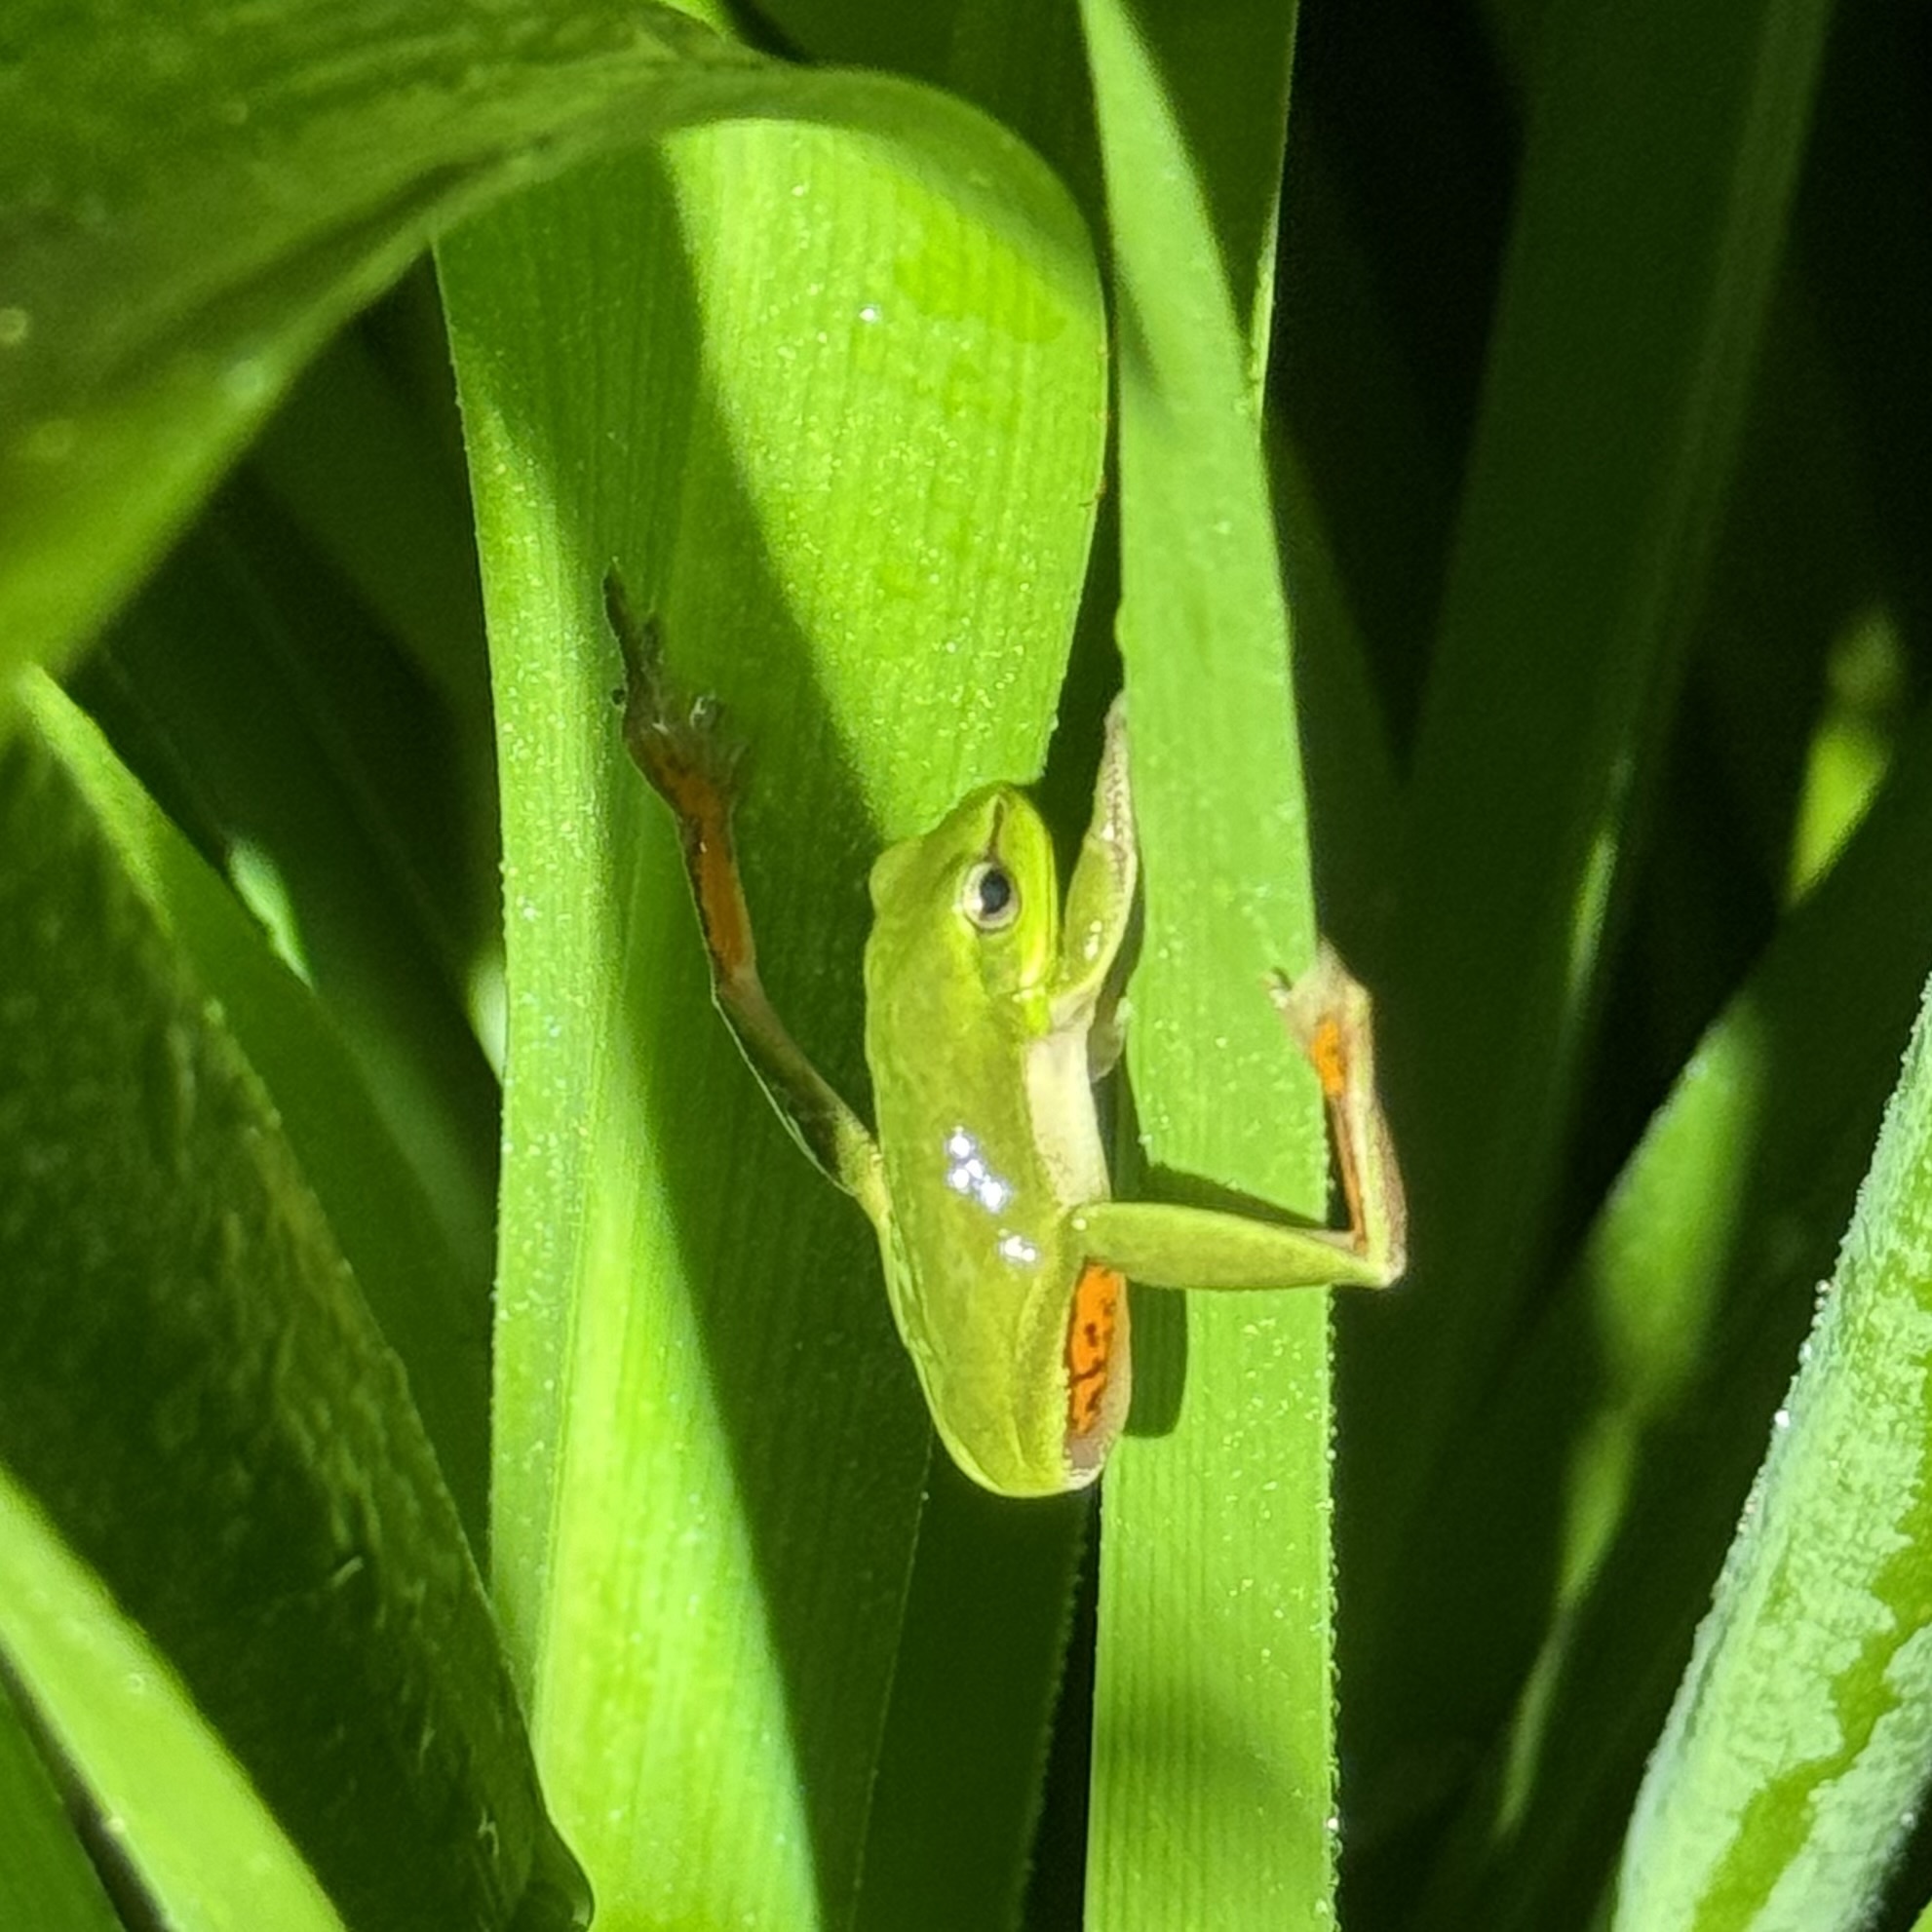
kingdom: Animalia
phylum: Chordata
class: Amphibia
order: Anura
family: Pelodryadidae
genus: Litoria
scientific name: Litoria fallax
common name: Eastern dwarf treefrog
